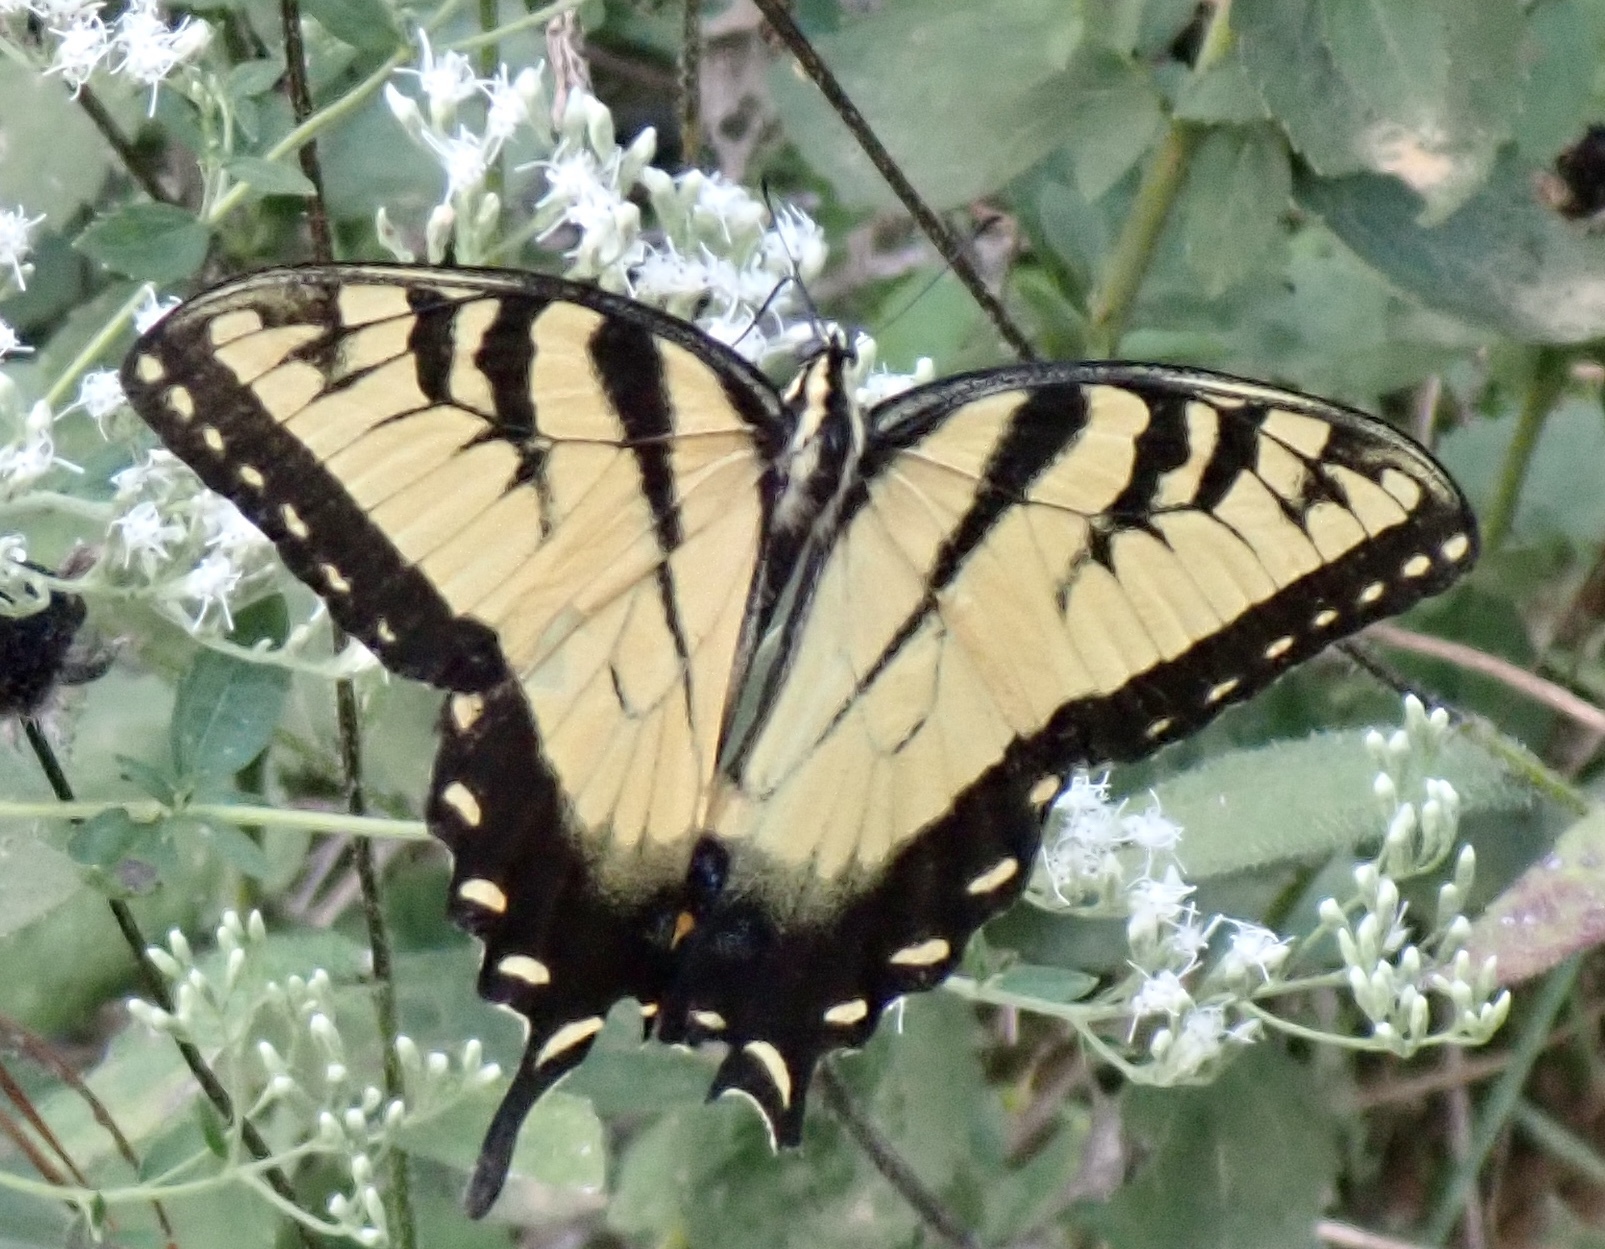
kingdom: Animalia
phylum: Arthropoda
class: Insecta
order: Lepidoptera
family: Papilionidae
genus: Papilio
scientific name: Papilio glaucus
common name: Tiger swallowtail
